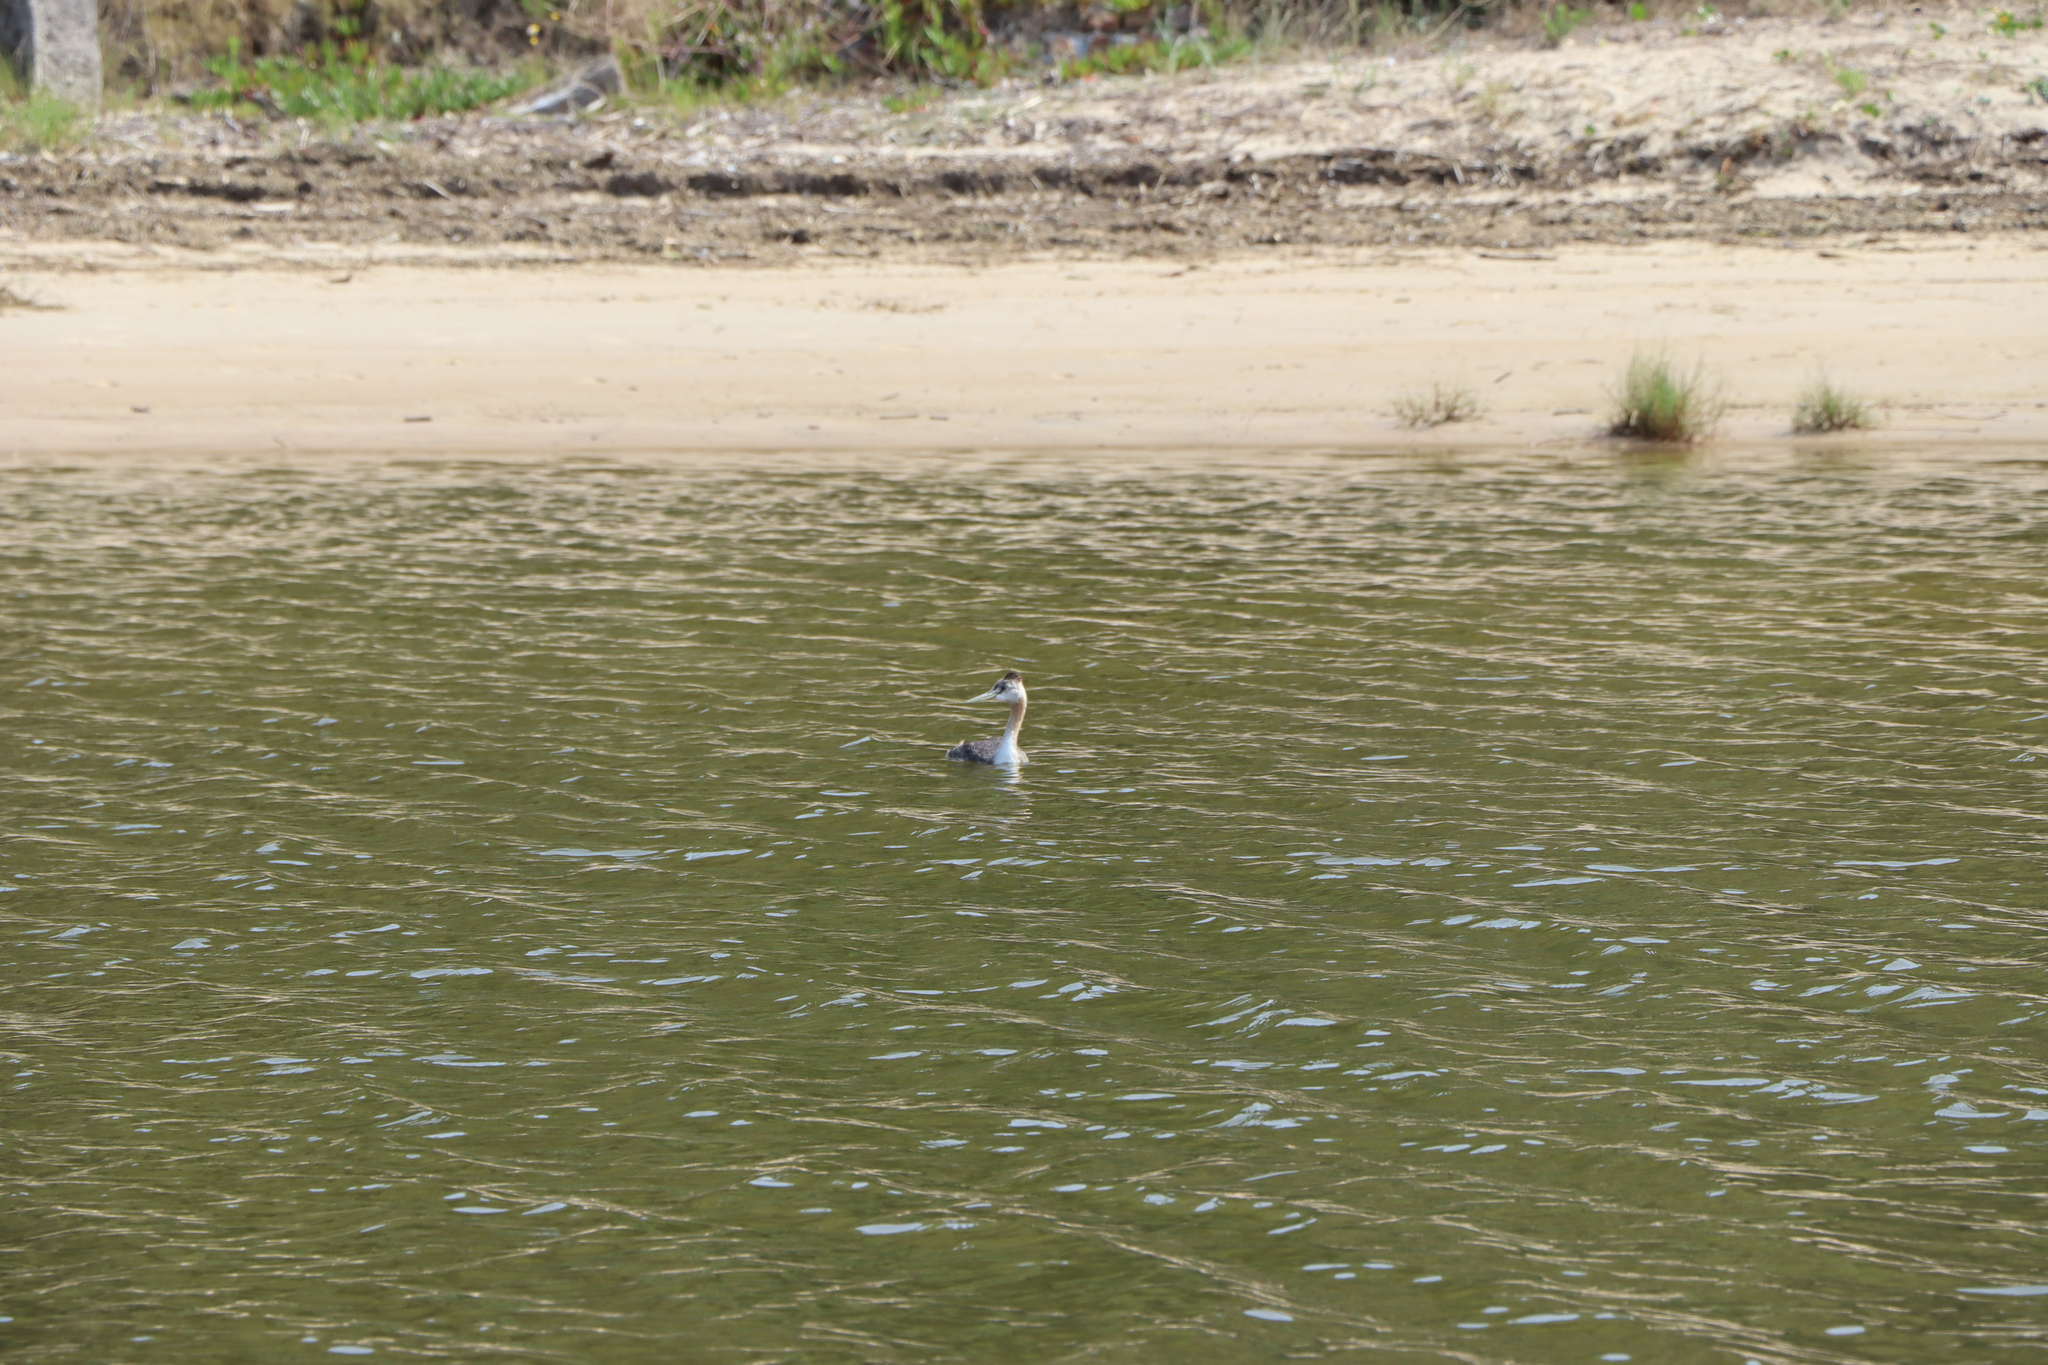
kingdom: Animalia
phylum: Chordata
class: Aves
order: Podicipediformes
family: Podicipedidae
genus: Podiceps
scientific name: Podiceps major
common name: Great grebe
